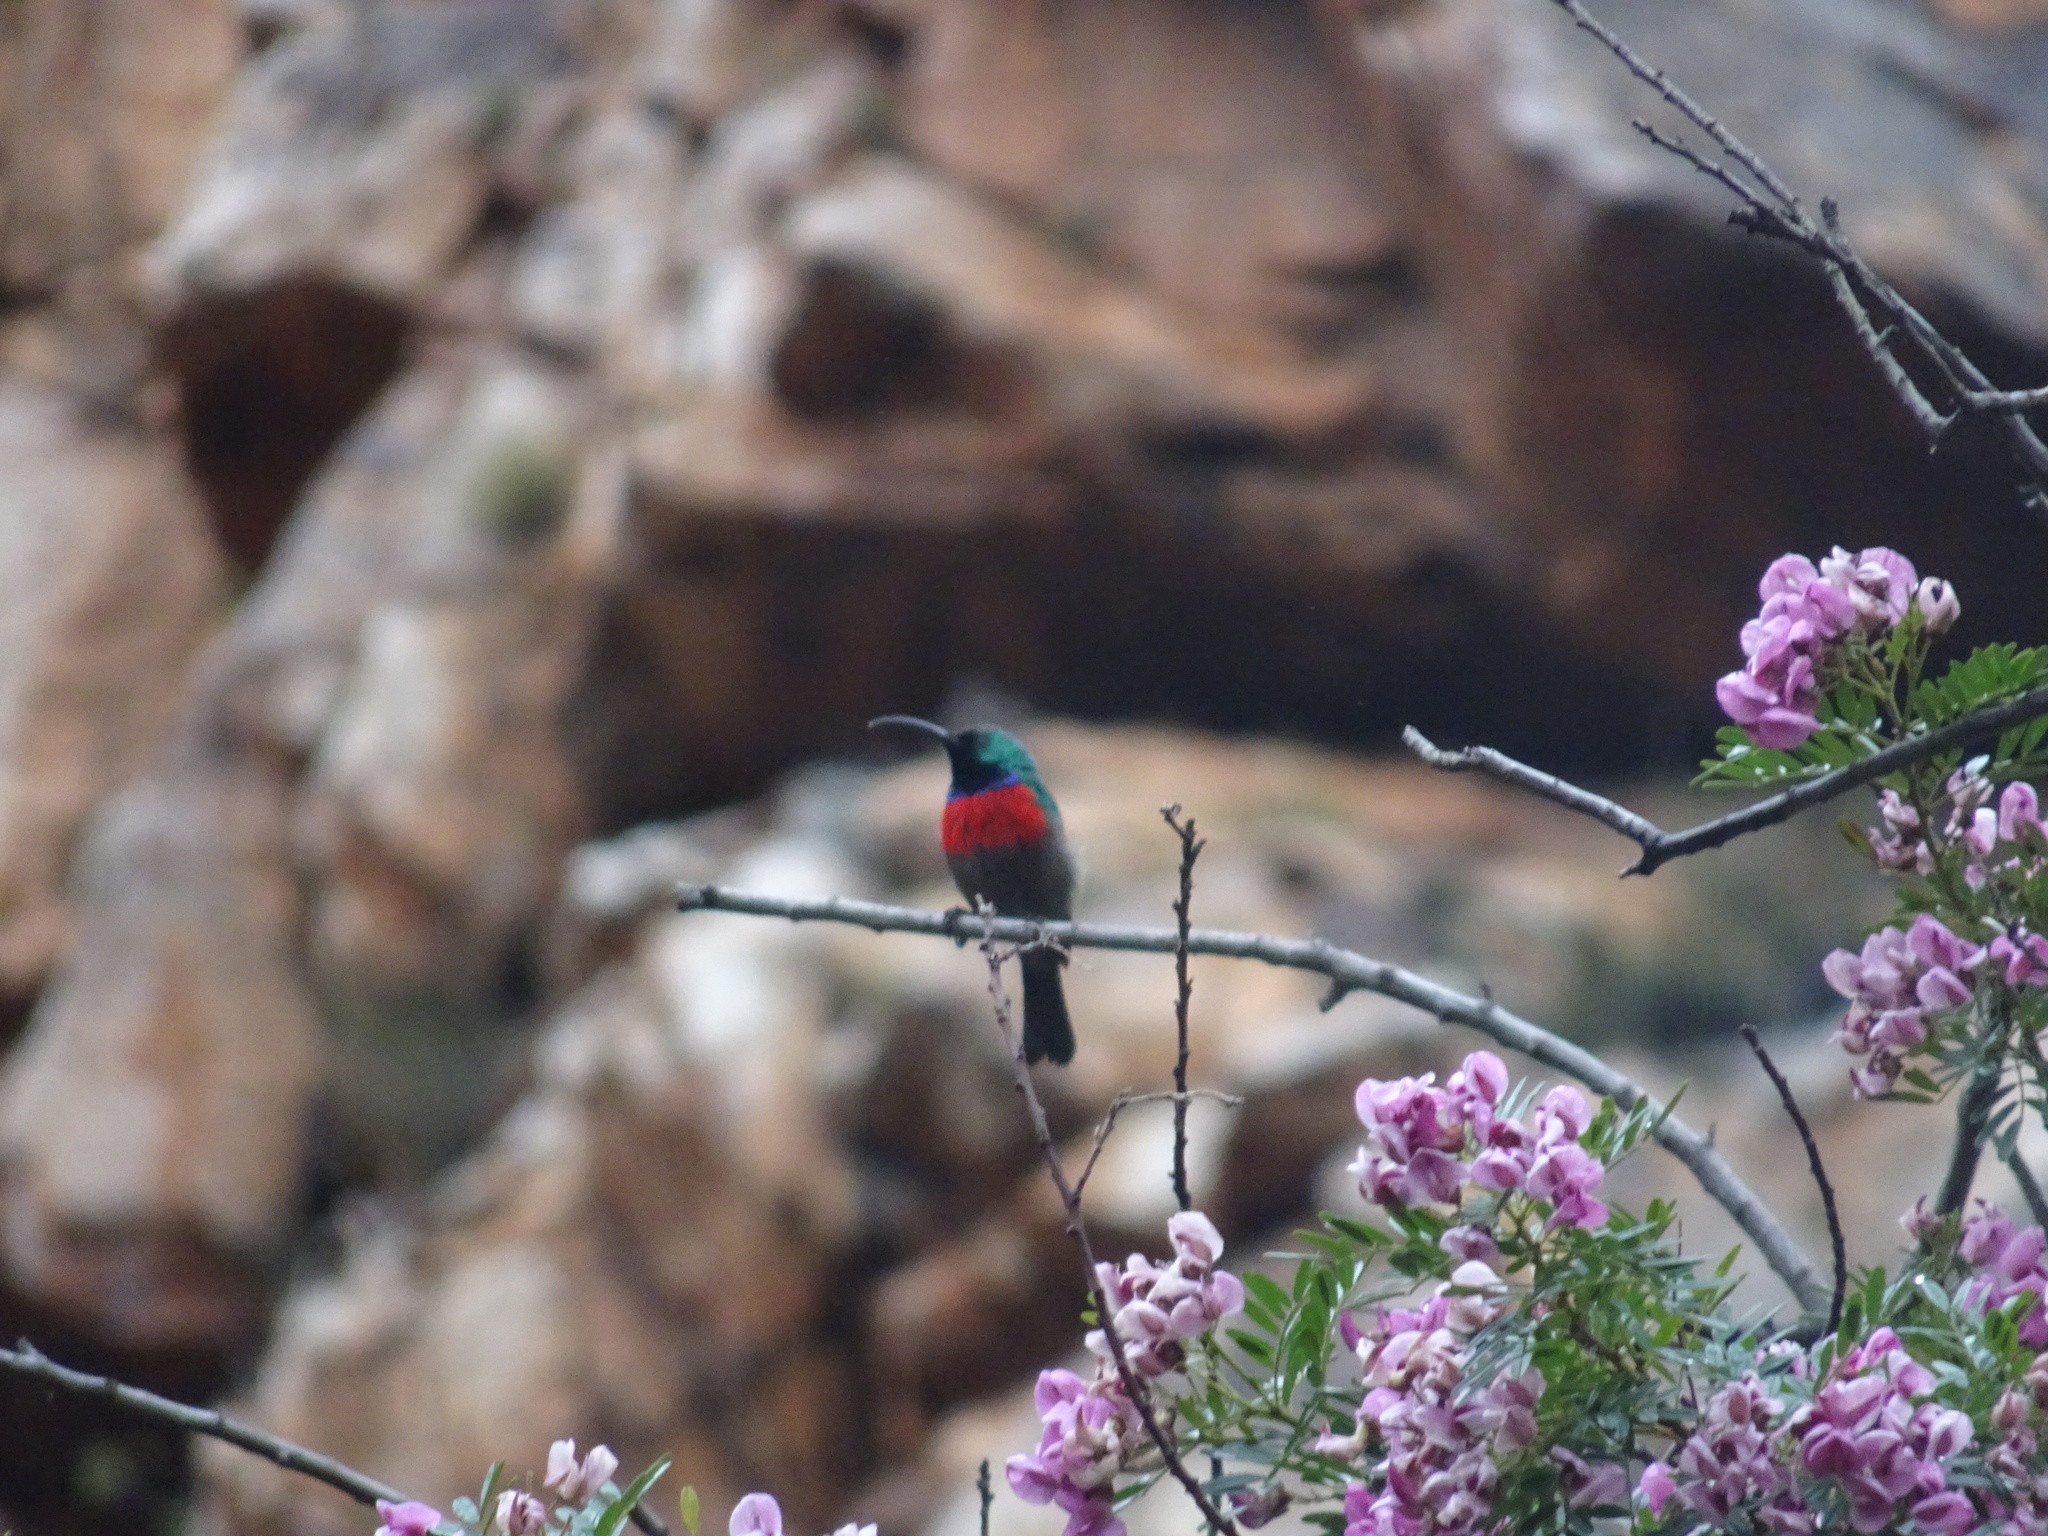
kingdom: Animalia
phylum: Chordata
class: Aves
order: Passeriformes
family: Nectariniidae
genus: Cinnyris
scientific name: Cinnyris afer
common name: Greater double-collared sunbird
